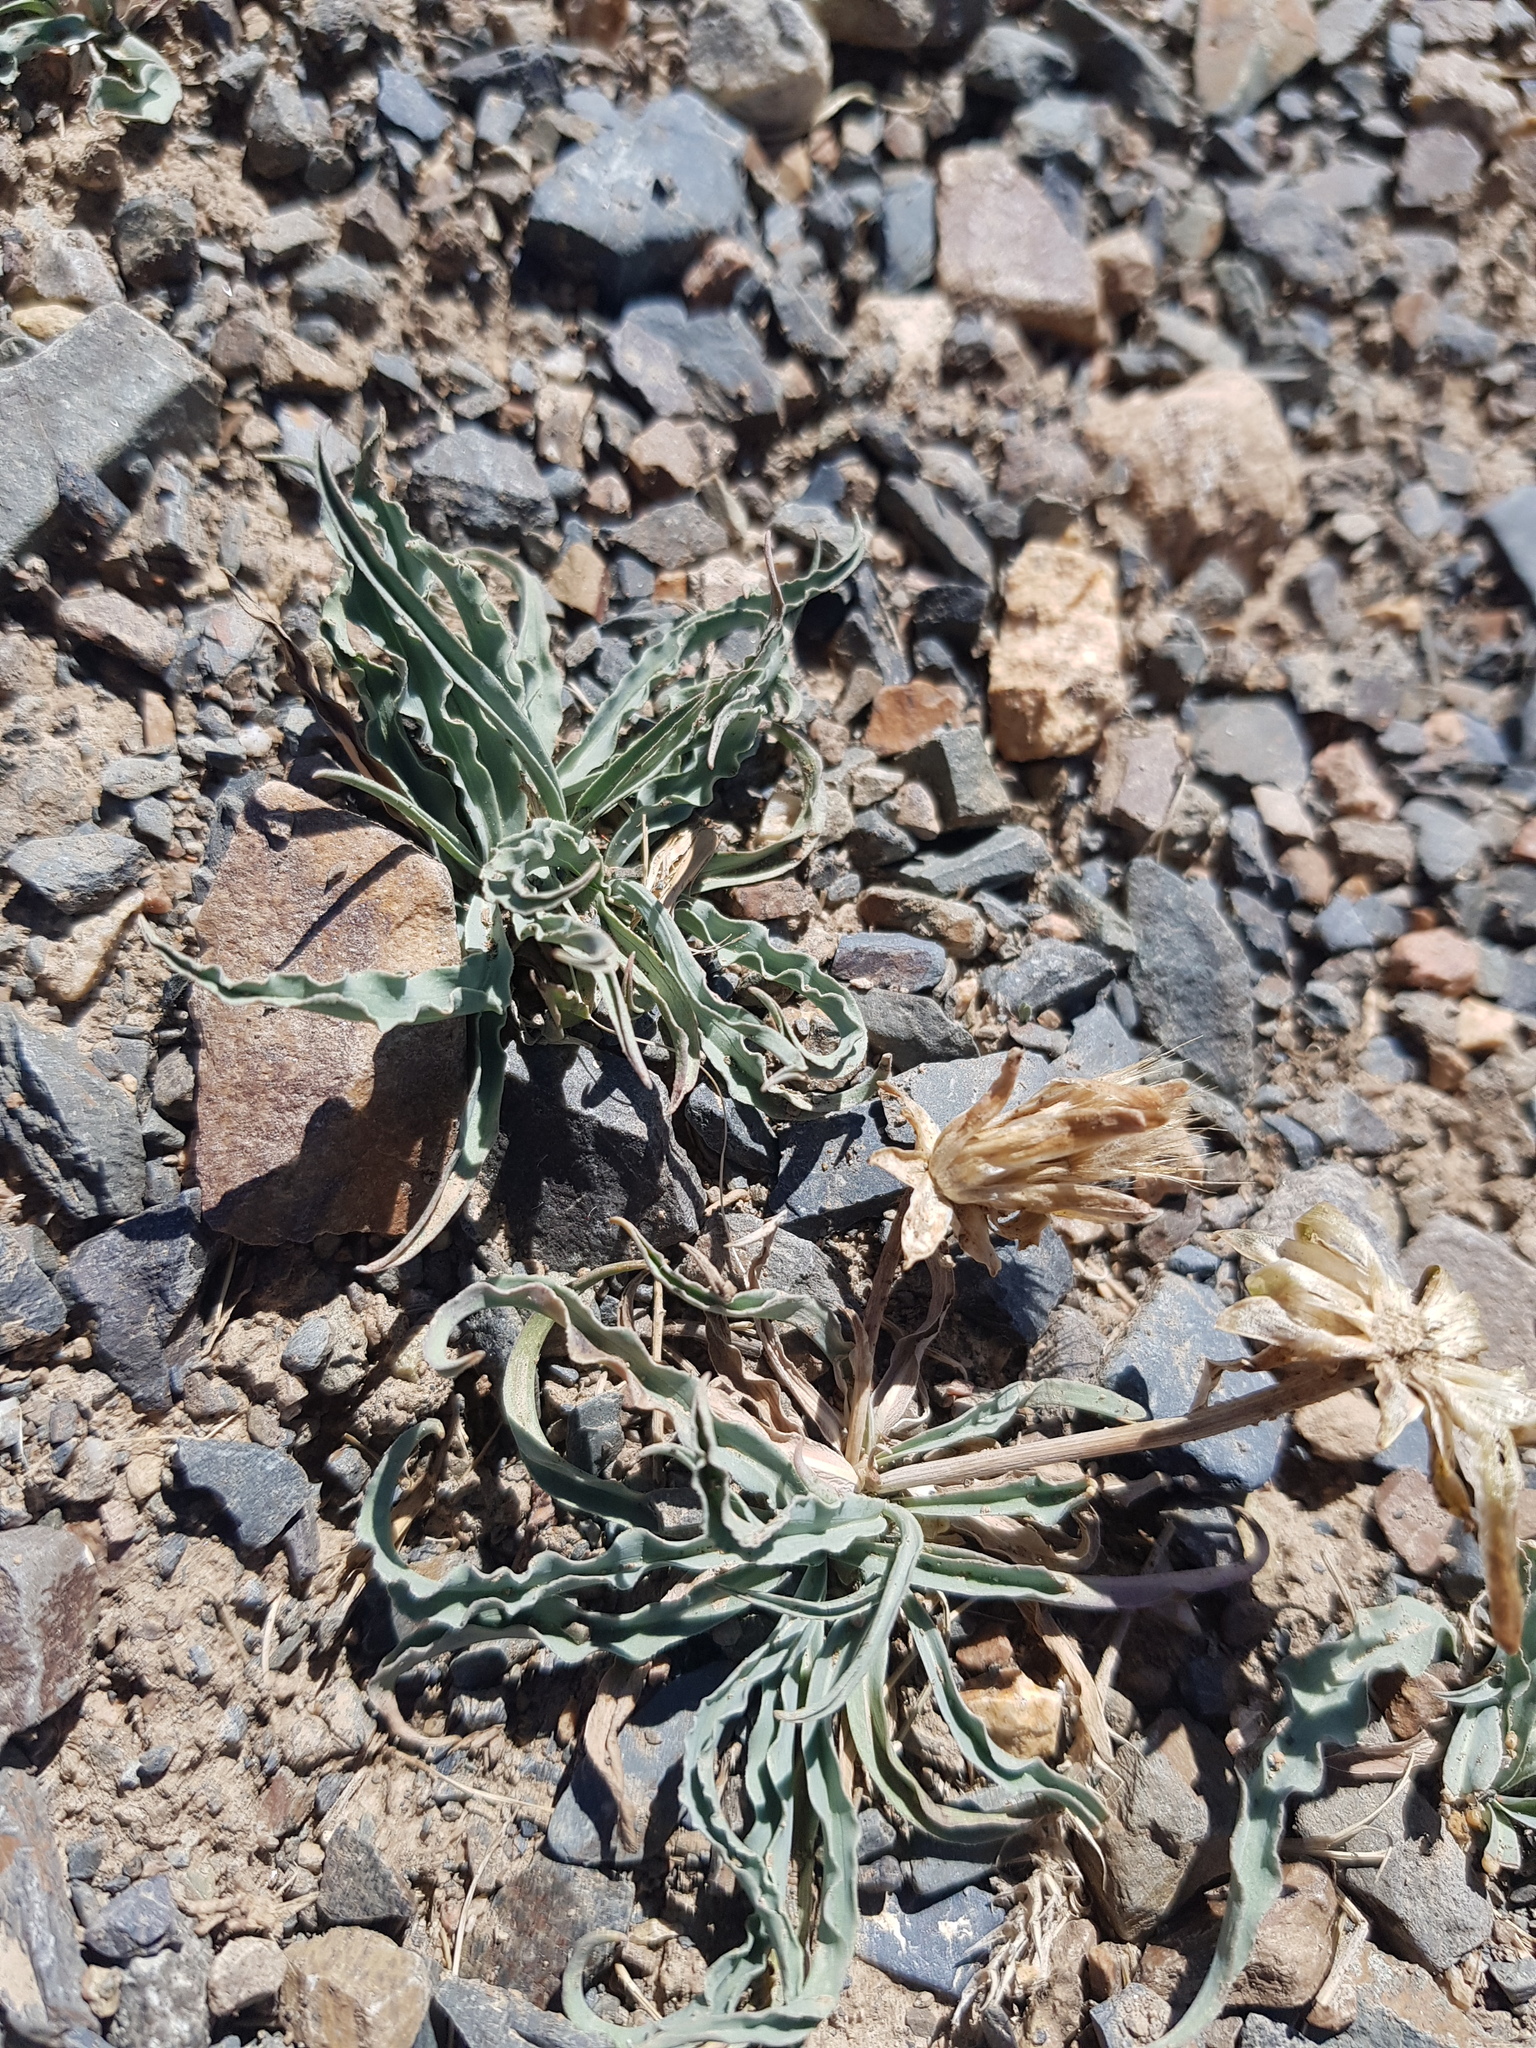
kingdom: Plantae
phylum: Tracheophyta
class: Magnoliopsida
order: Asterales
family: Asteraceae
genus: Takhtajaniantha
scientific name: Takhtajaniantha ikonnikovii
